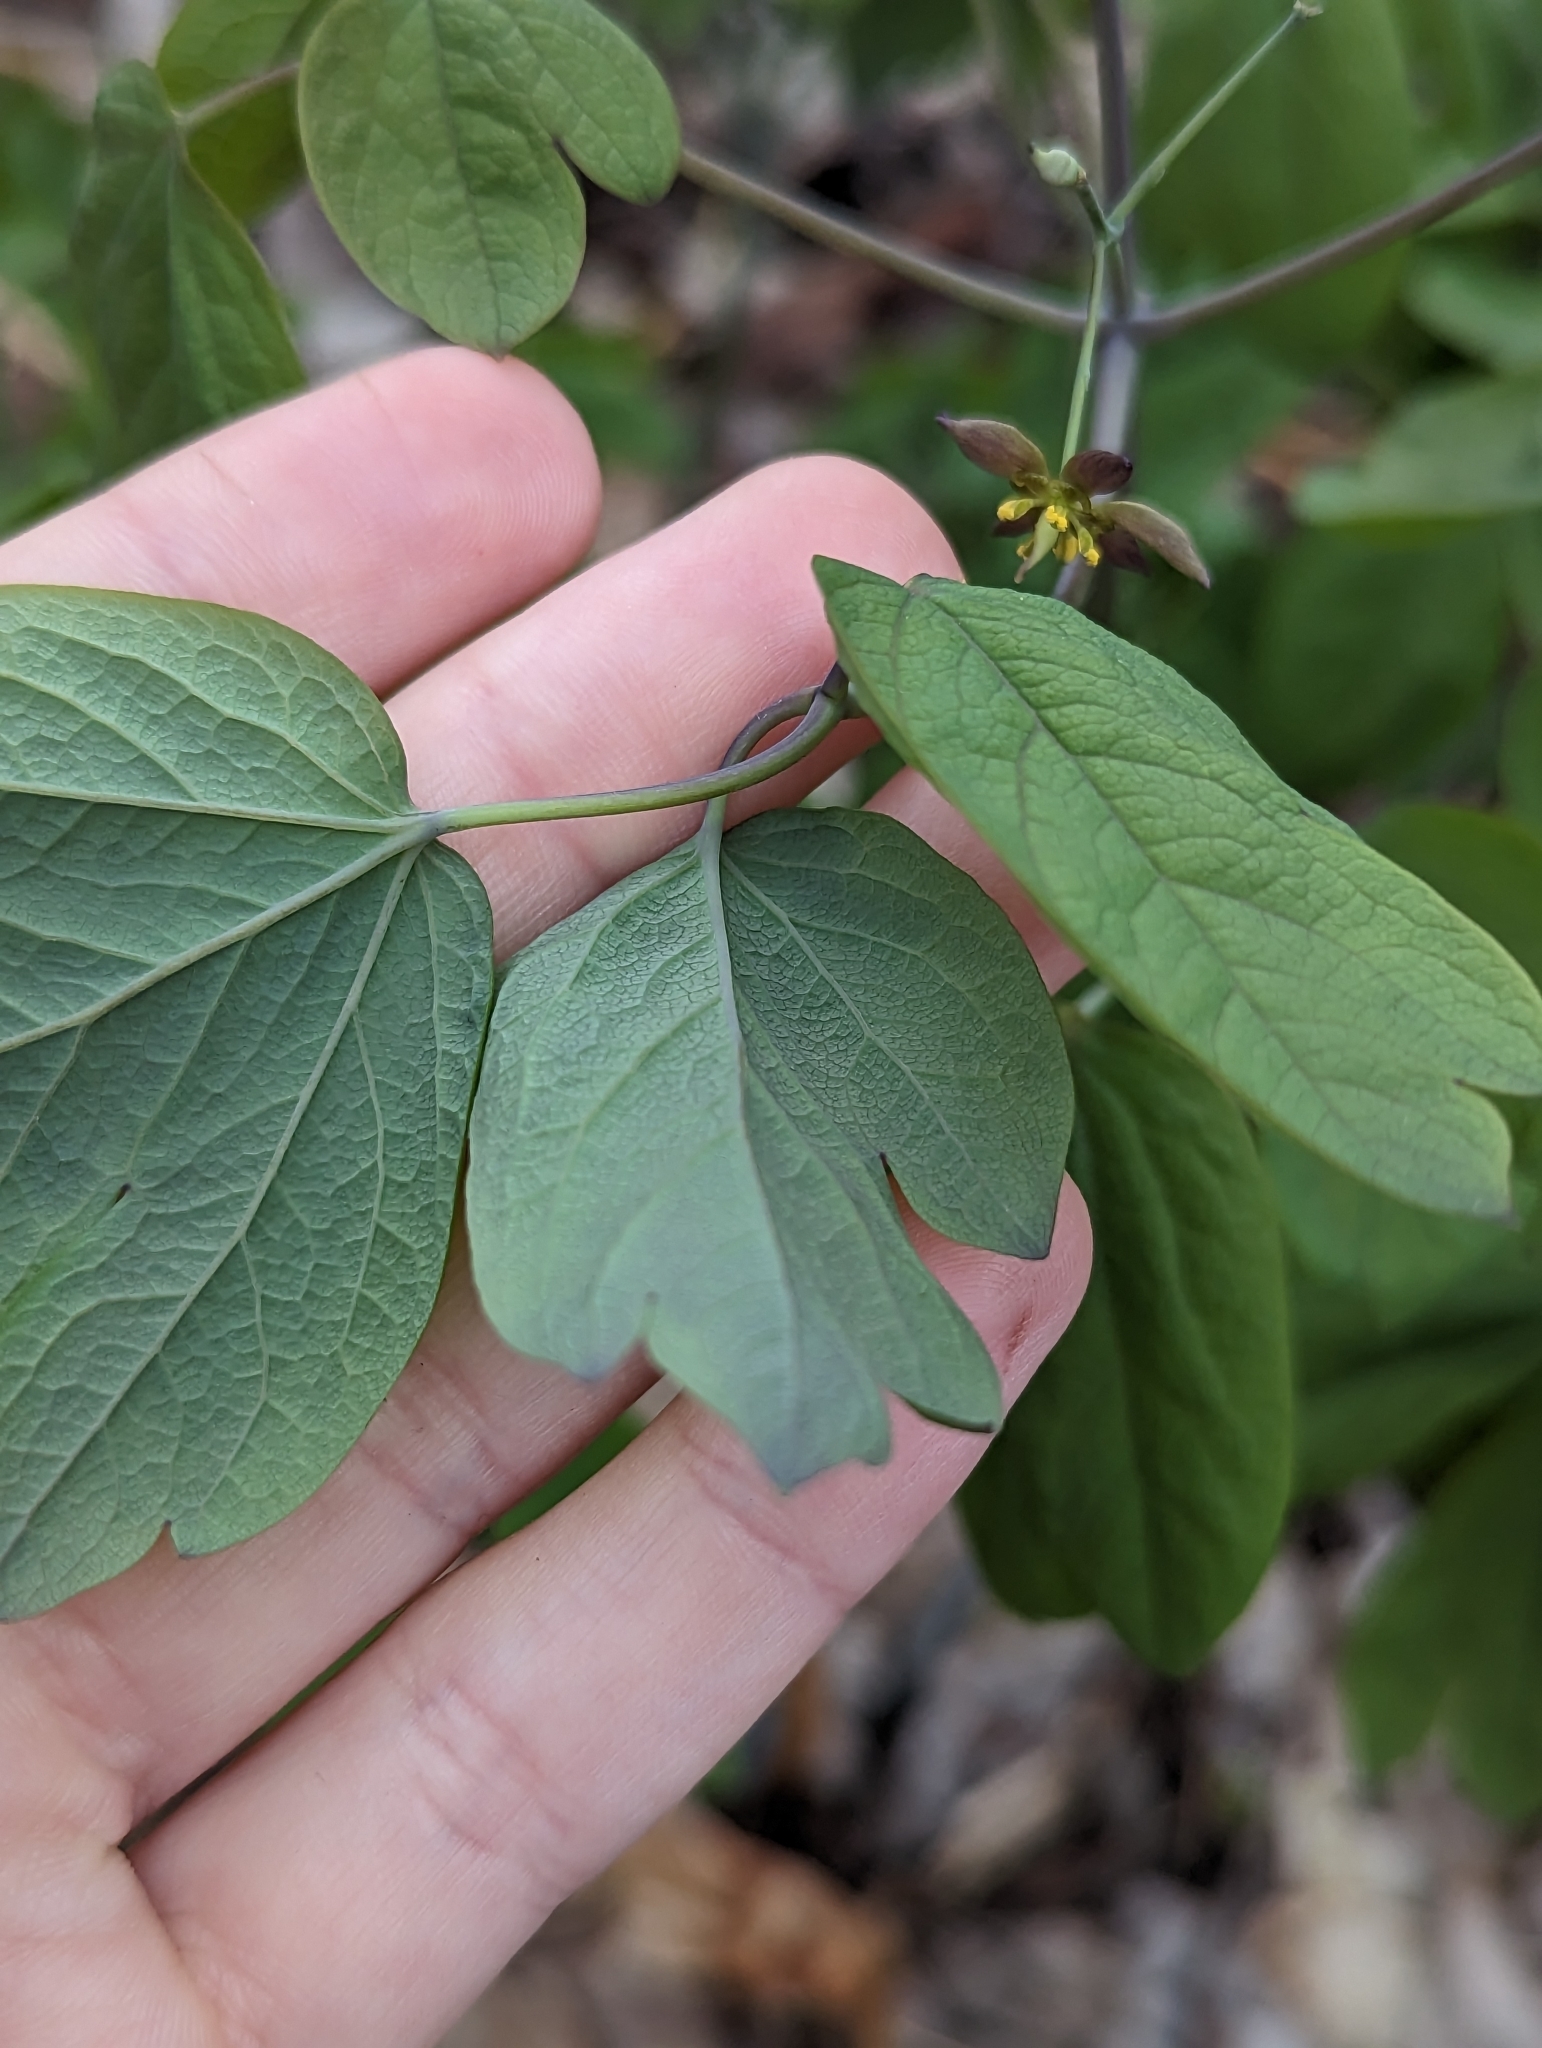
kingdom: Plantae
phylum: Tracheophyta
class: Magnoliopsida
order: Ranunculales
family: Berberidaceae
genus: Caulophyllum
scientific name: Caulophyllum giganteum
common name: Blue cohosh
